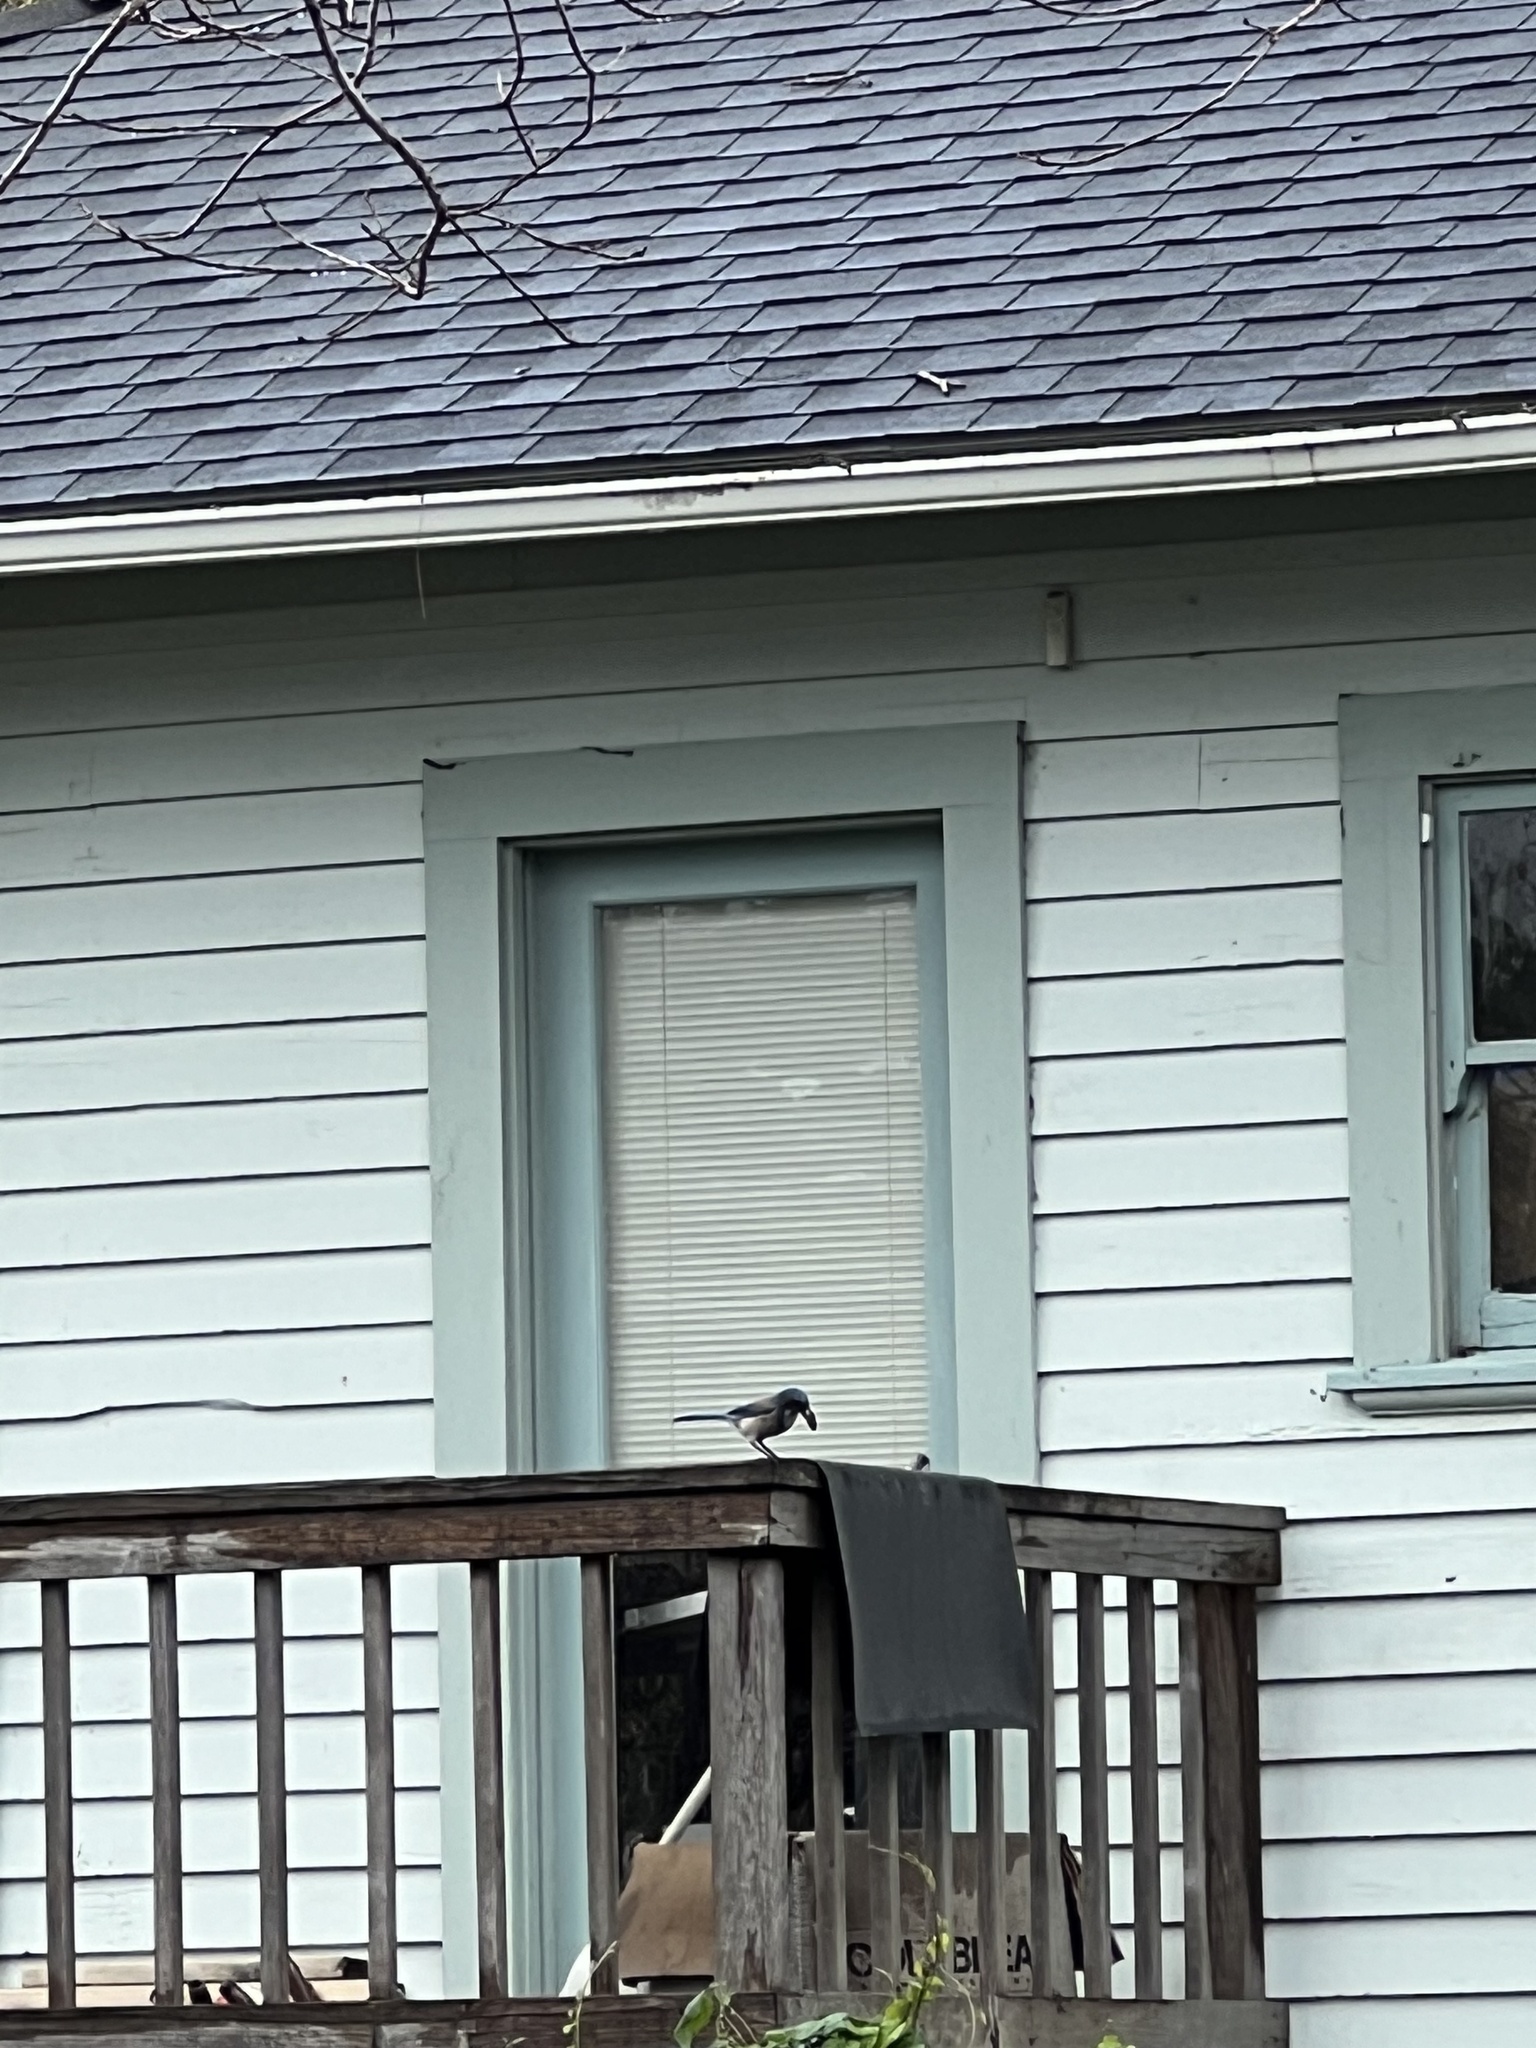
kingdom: Animalia
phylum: Chordata
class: Aves
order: Passeriformes
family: Corvidae
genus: Aphelocoma
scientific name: Aphelocoma californica
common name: California scrub-jay
